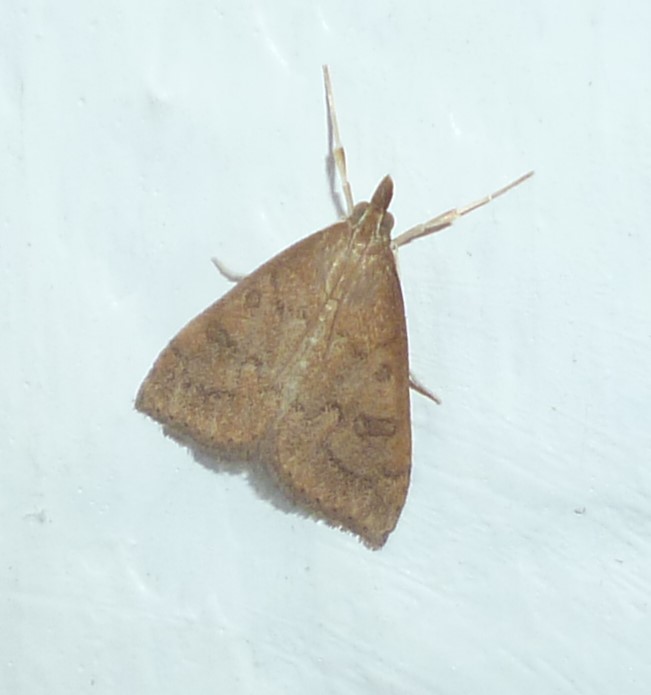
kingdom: Animalia
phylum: Arthropoda
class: Insecta
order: Lepidoptera
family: Crambidae
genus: Udea
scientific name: Udea rubigalis
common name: Celery leaftier moth
